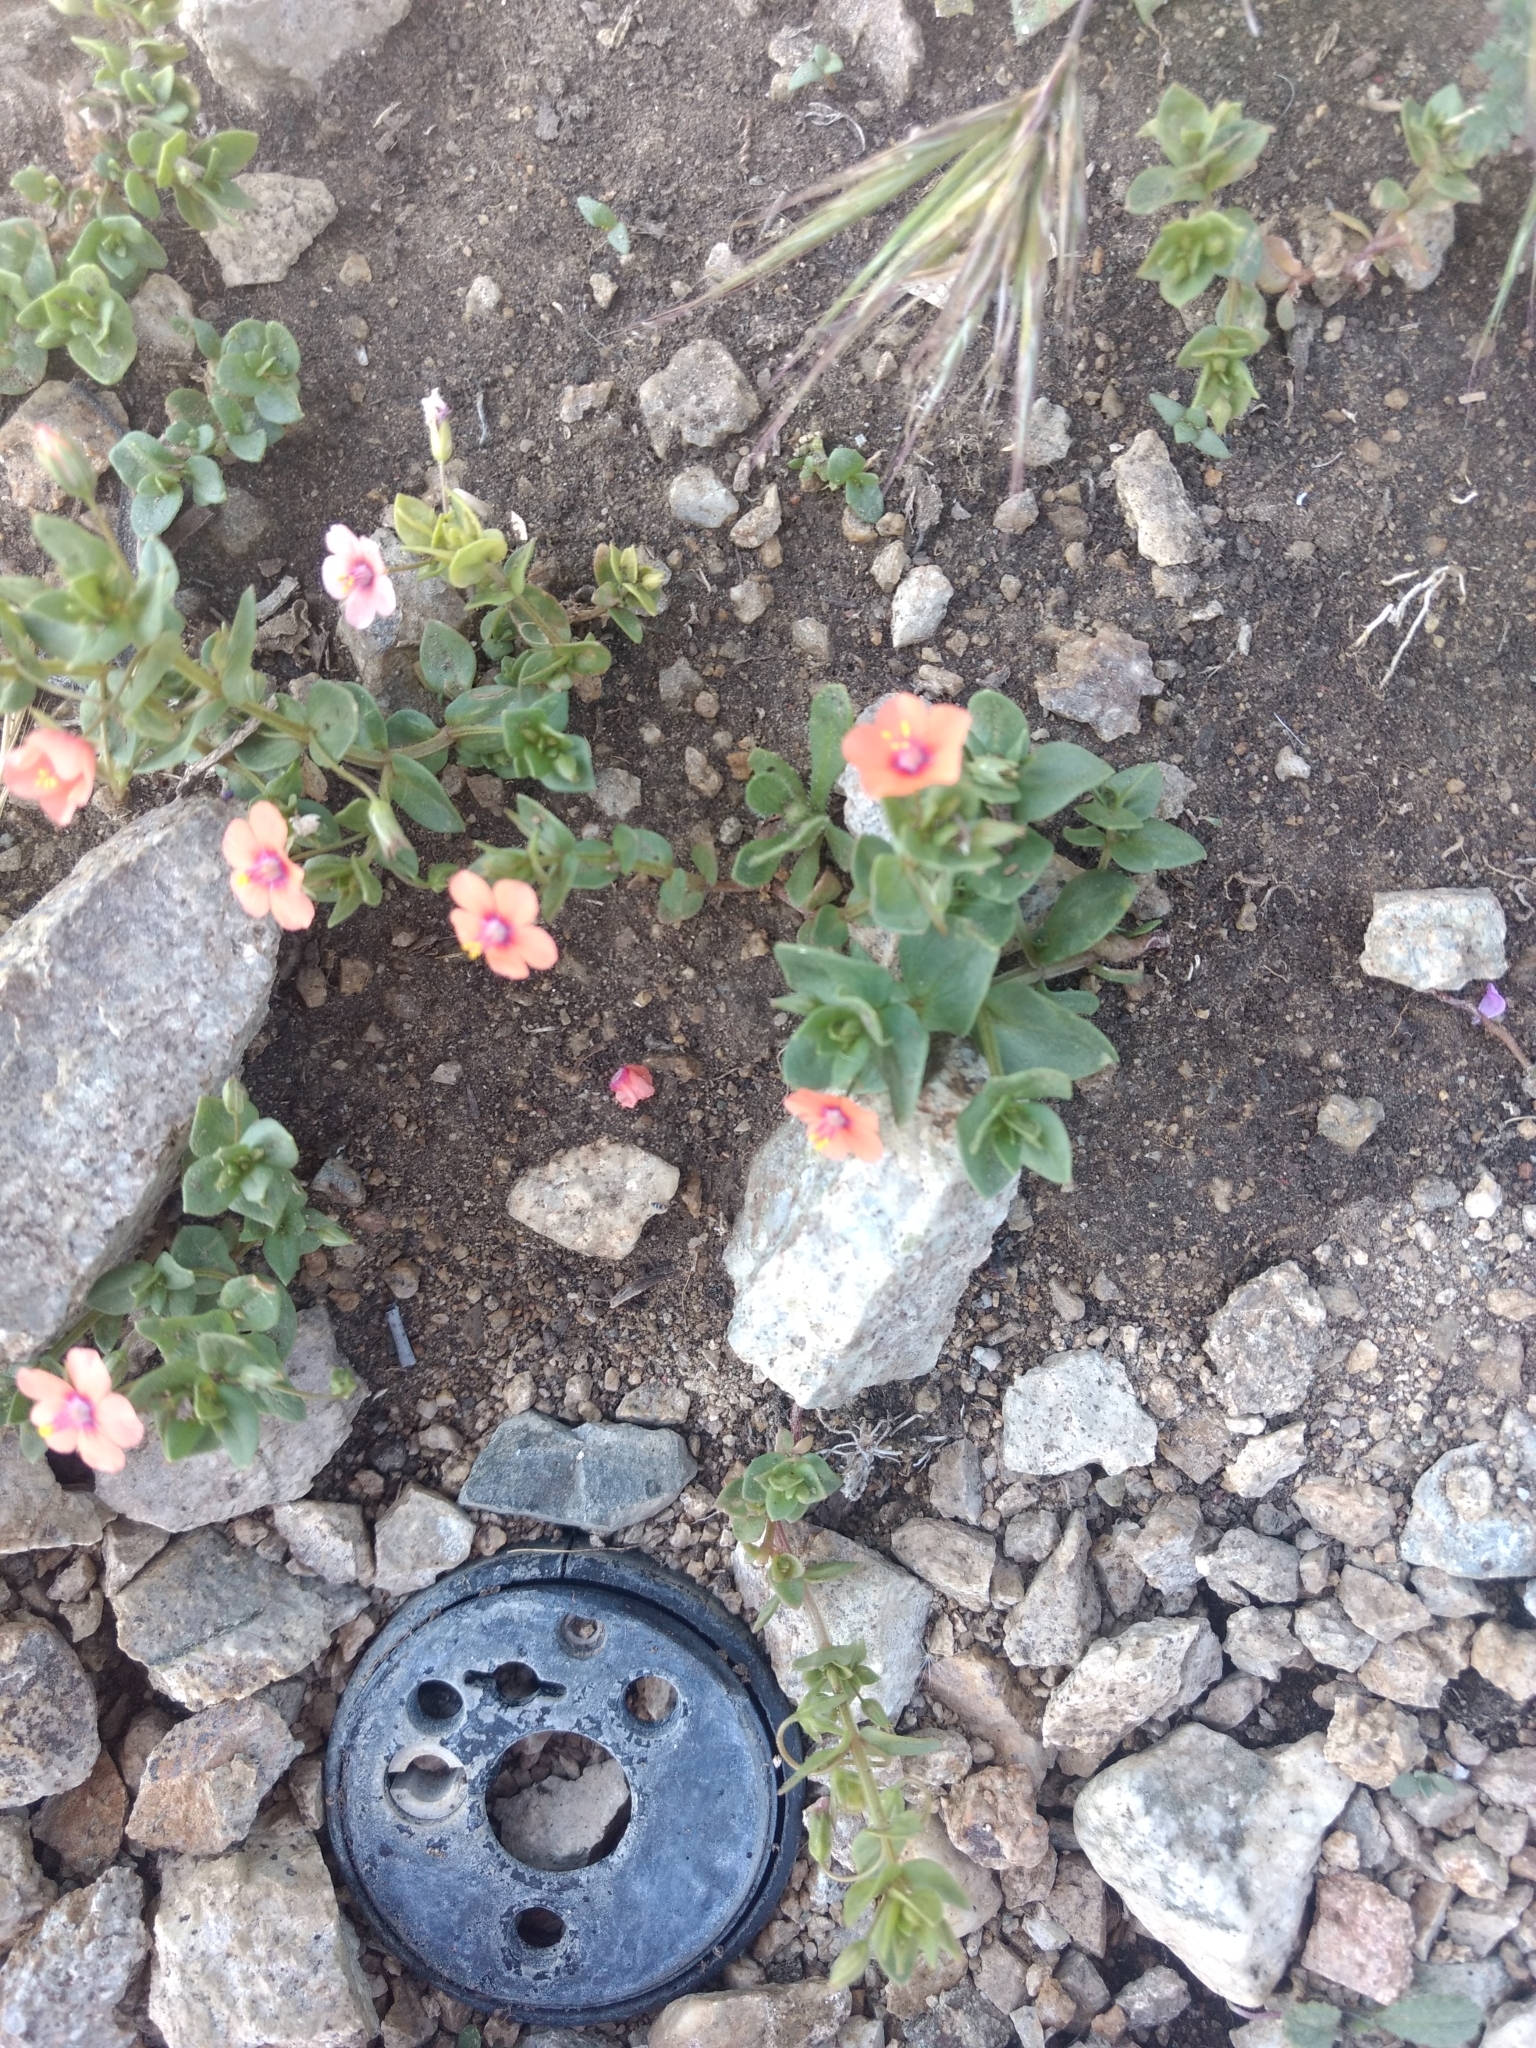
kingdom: Plantae
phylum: Tracheophyta
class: Magnoliopsida
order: Ericales
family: Primulaceae
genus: Lysimachia
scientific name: Lysimachia arvensis
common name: Scarlet pimpernel
